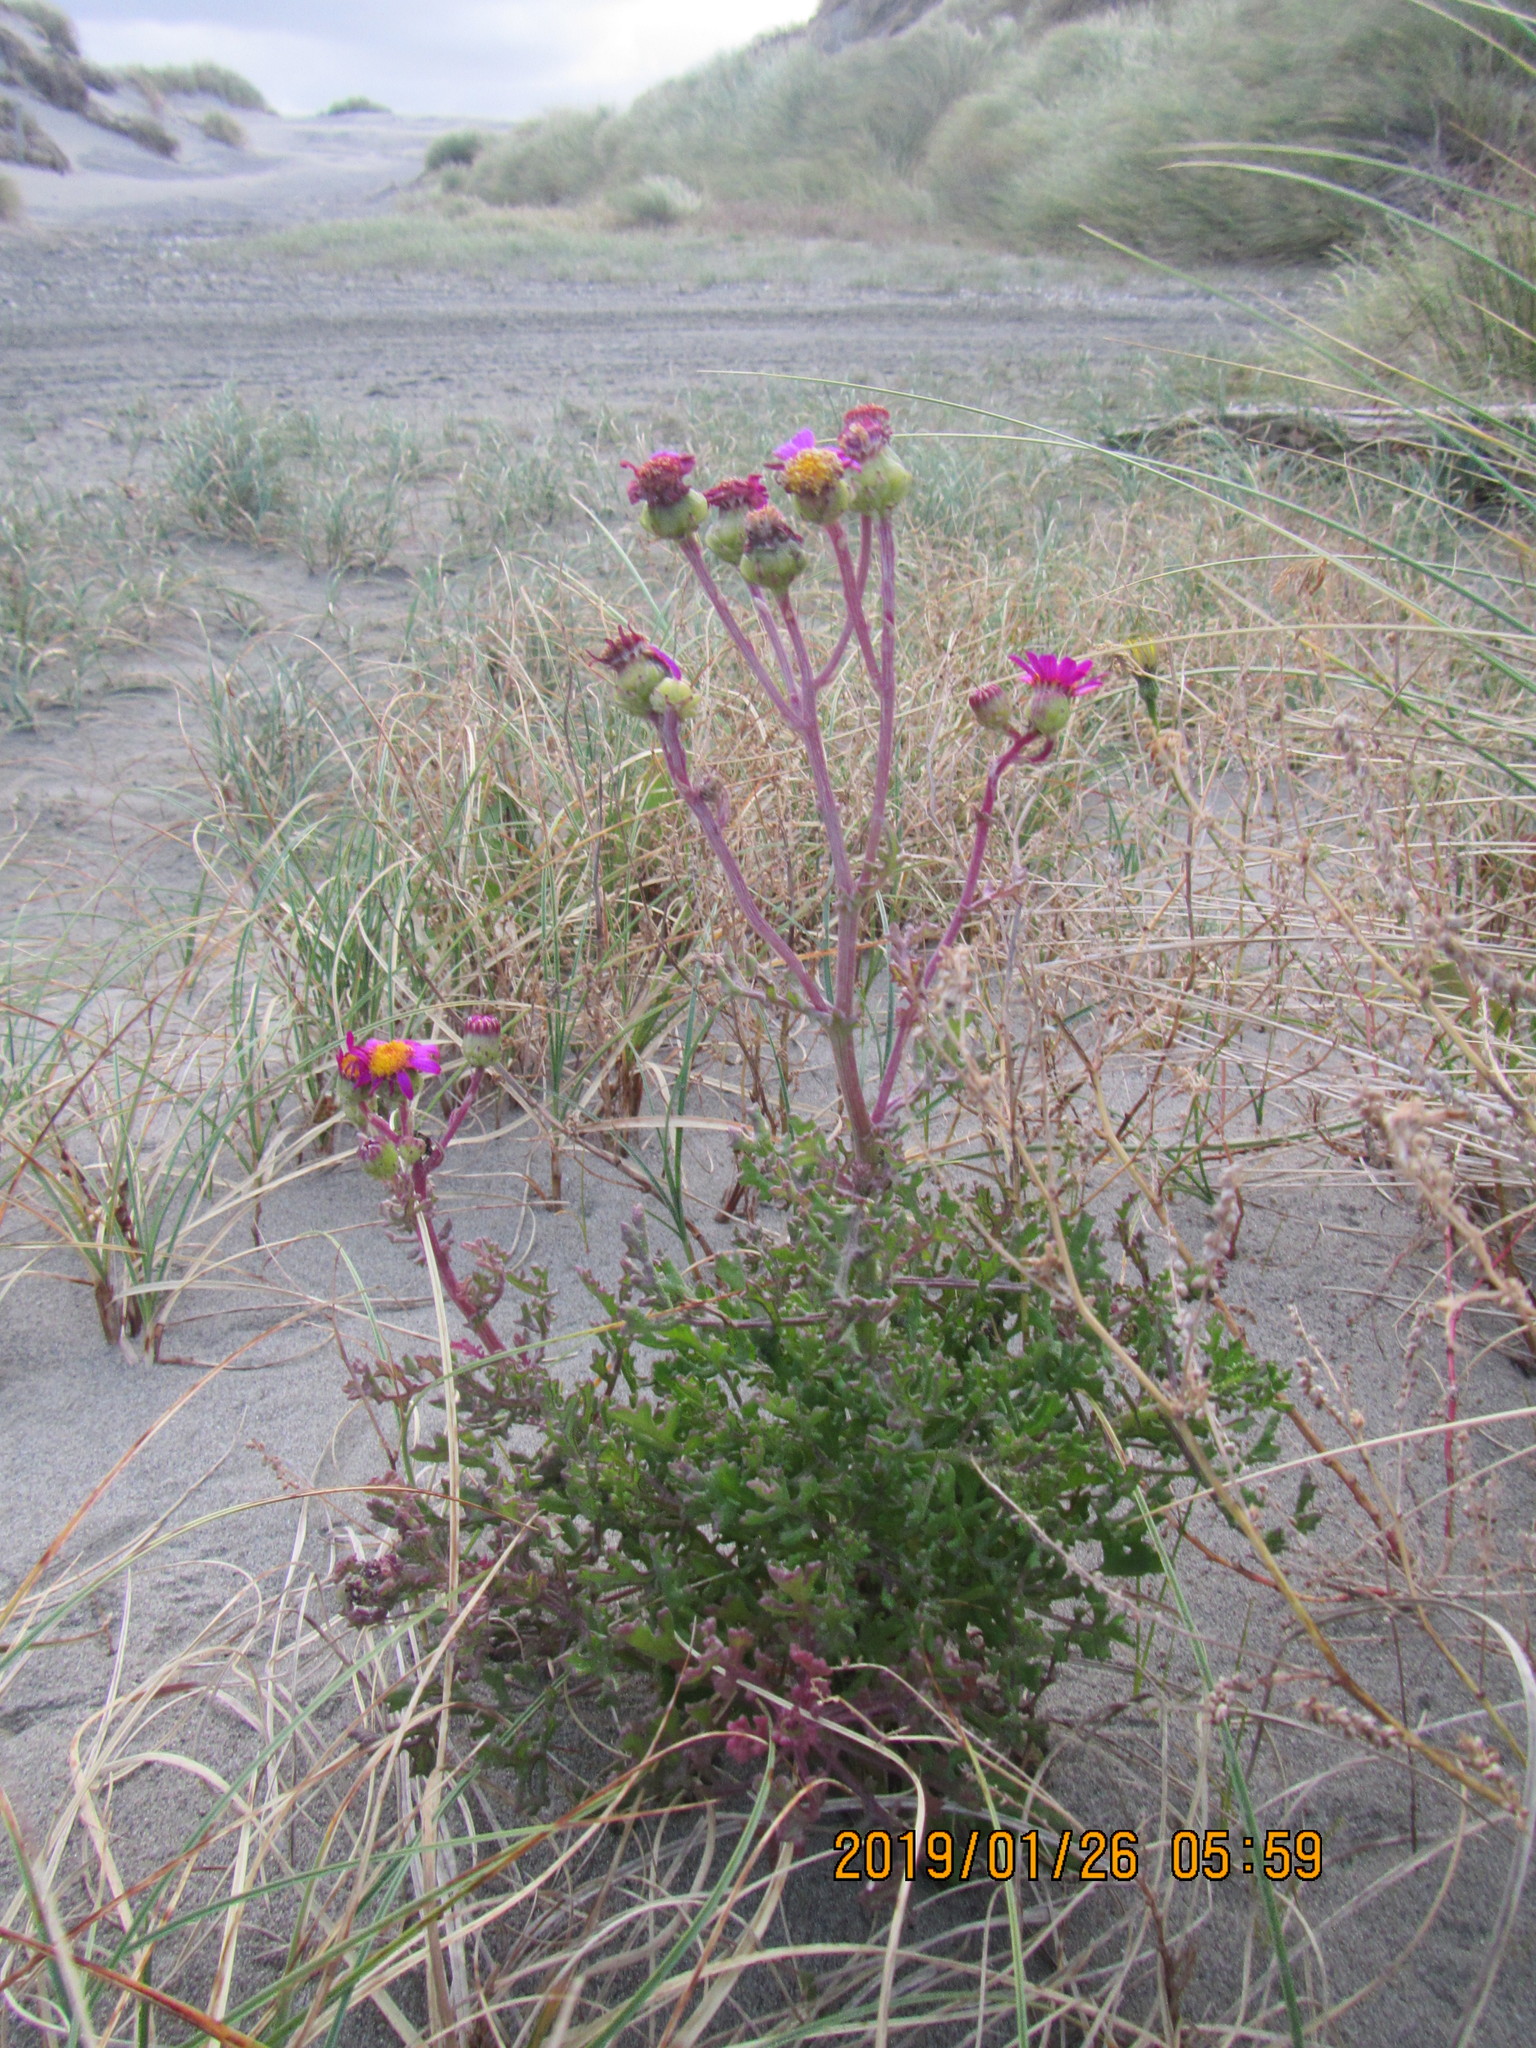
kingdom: Plantae
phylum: Tracheophyta
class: Magnoliopsida
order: Asterales
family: Asteraceae
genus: Senecio
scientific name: Senecio elegans
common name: Purple groundsel
